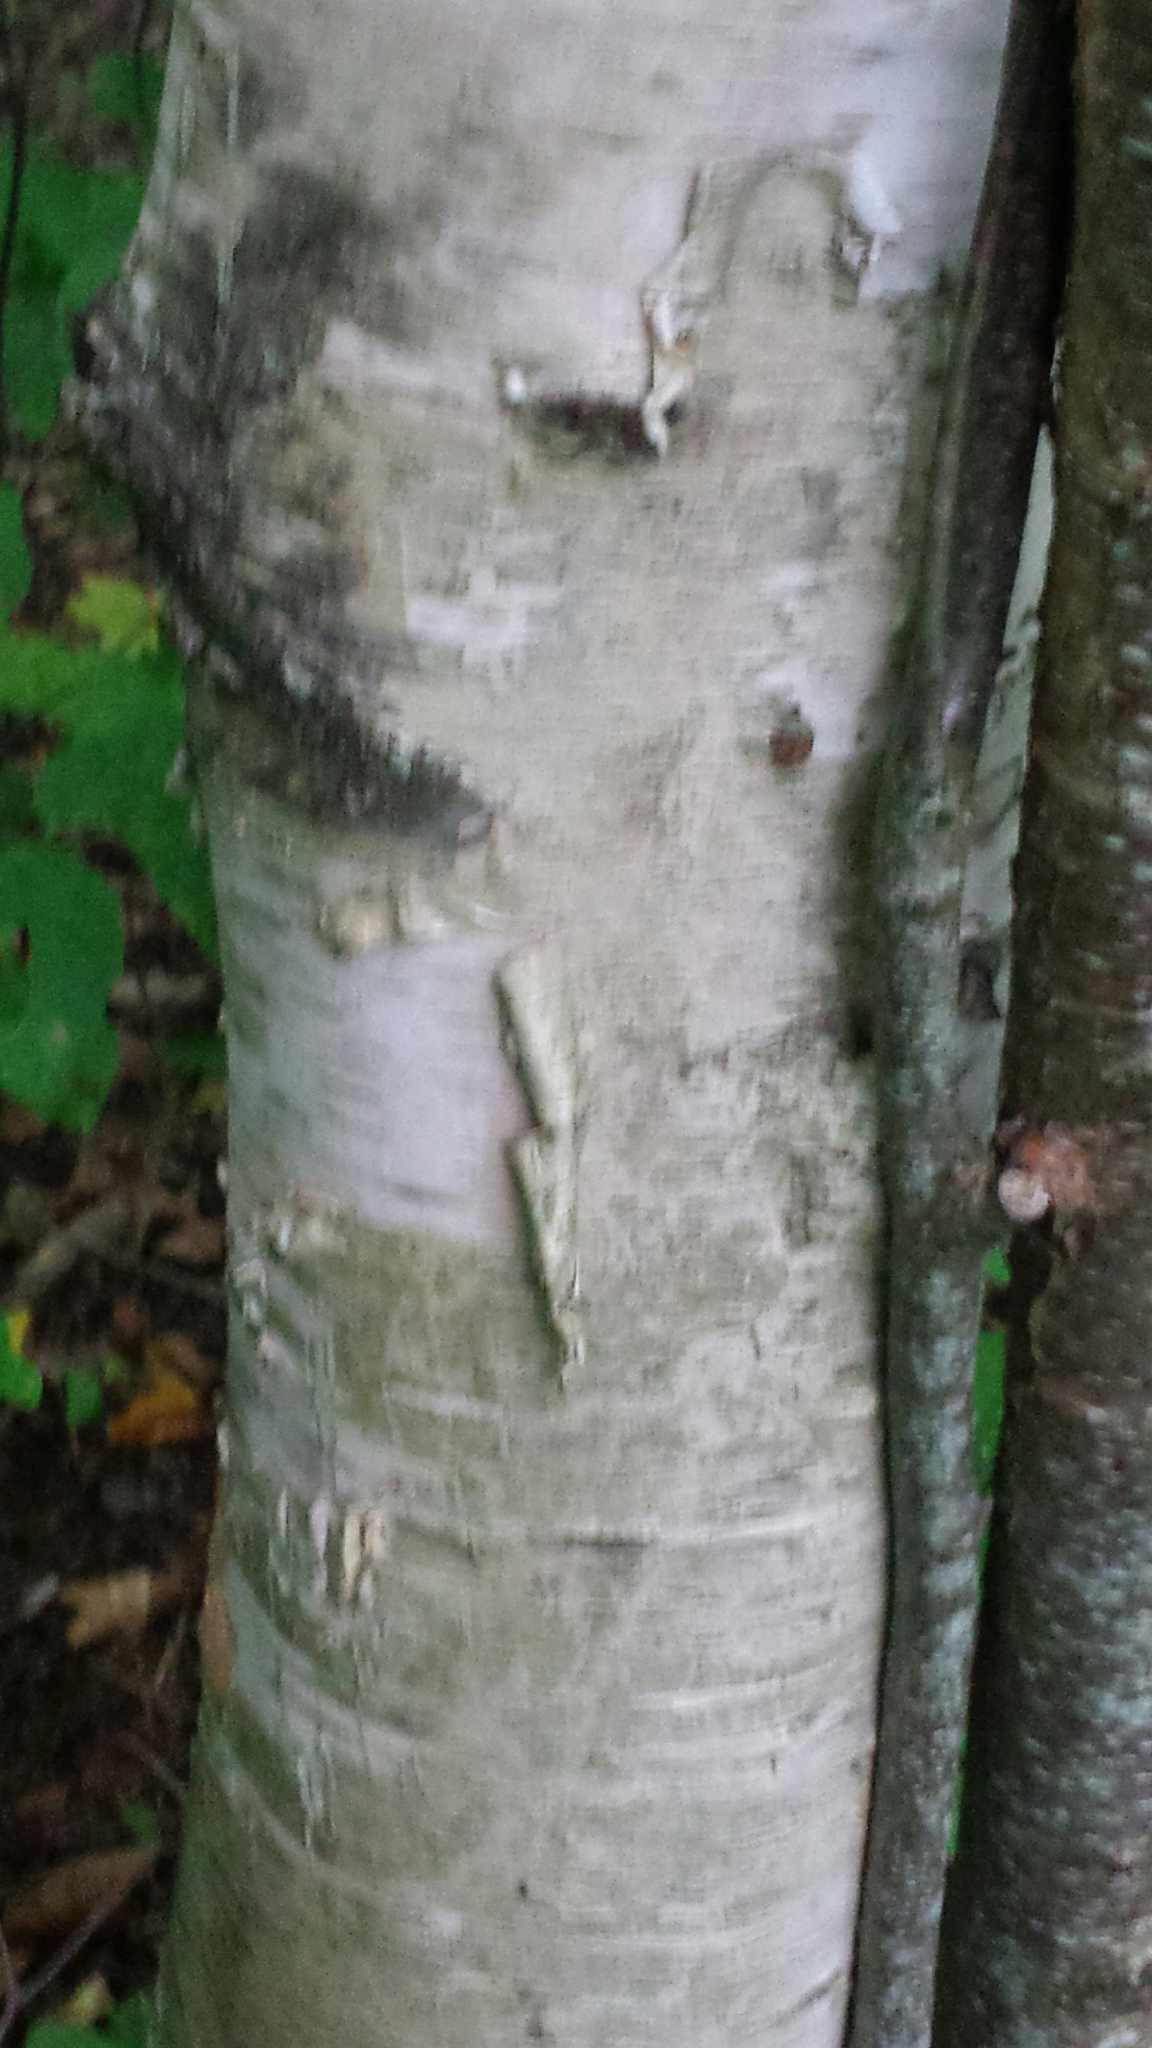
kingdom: Plantae
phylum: Tracheophyta
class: Magnoliopsida
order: Fagales
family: Betulaceae
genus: Betula
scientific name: Betula papyrifera
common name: Paper birch
